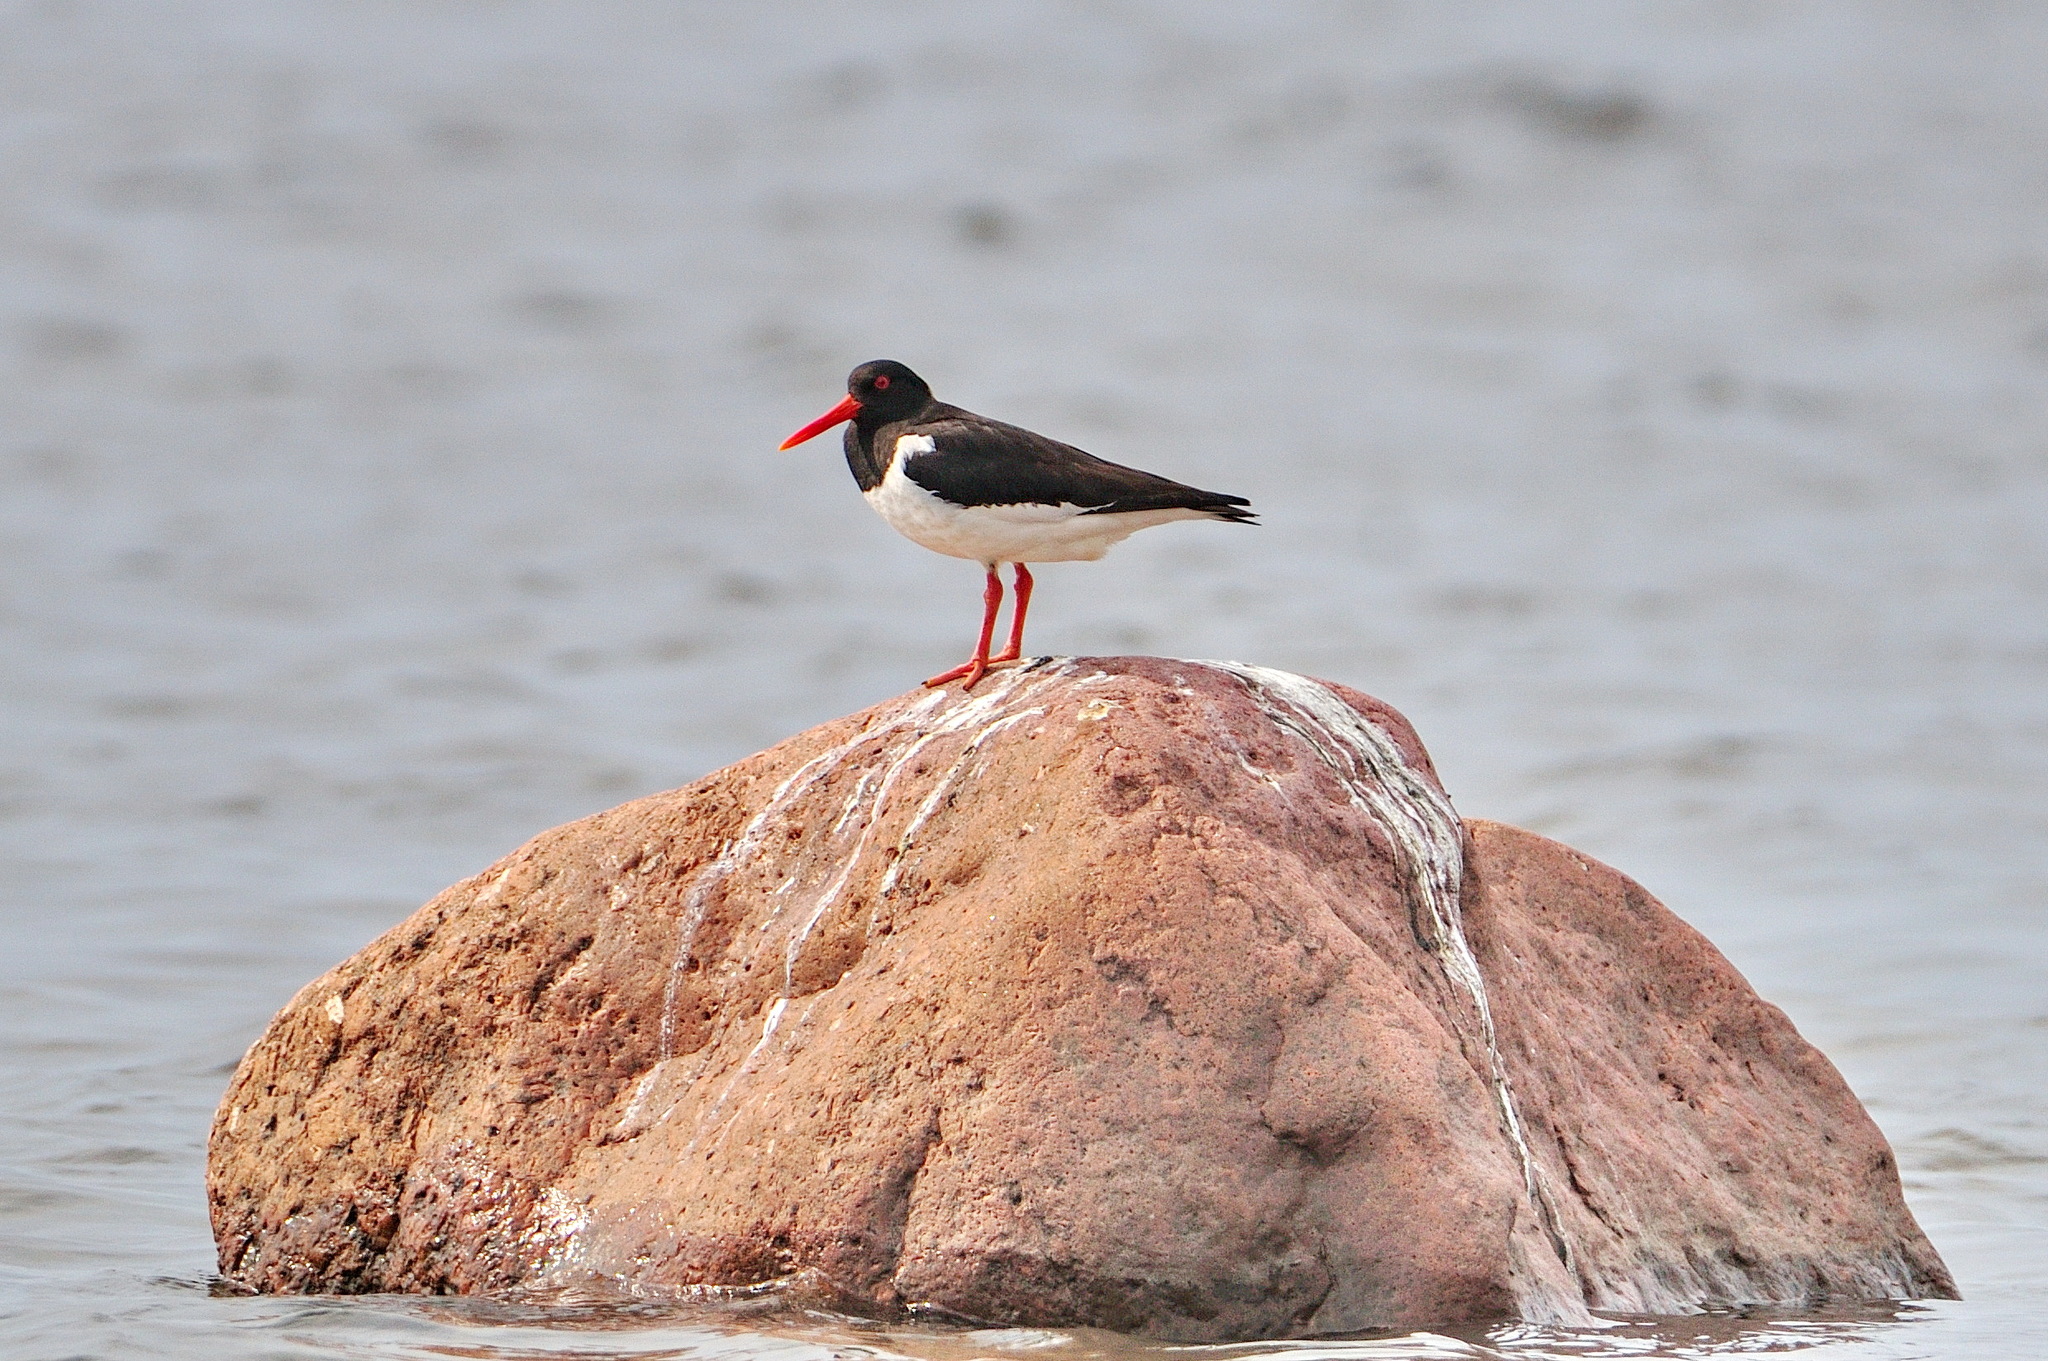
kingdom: Animalia
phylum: Chordata
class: Aves
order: Charadriiformes
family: Haematopodidae
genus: Haematopus
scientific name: Haematopus ostralegus
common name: Eurasian oystercatcher
